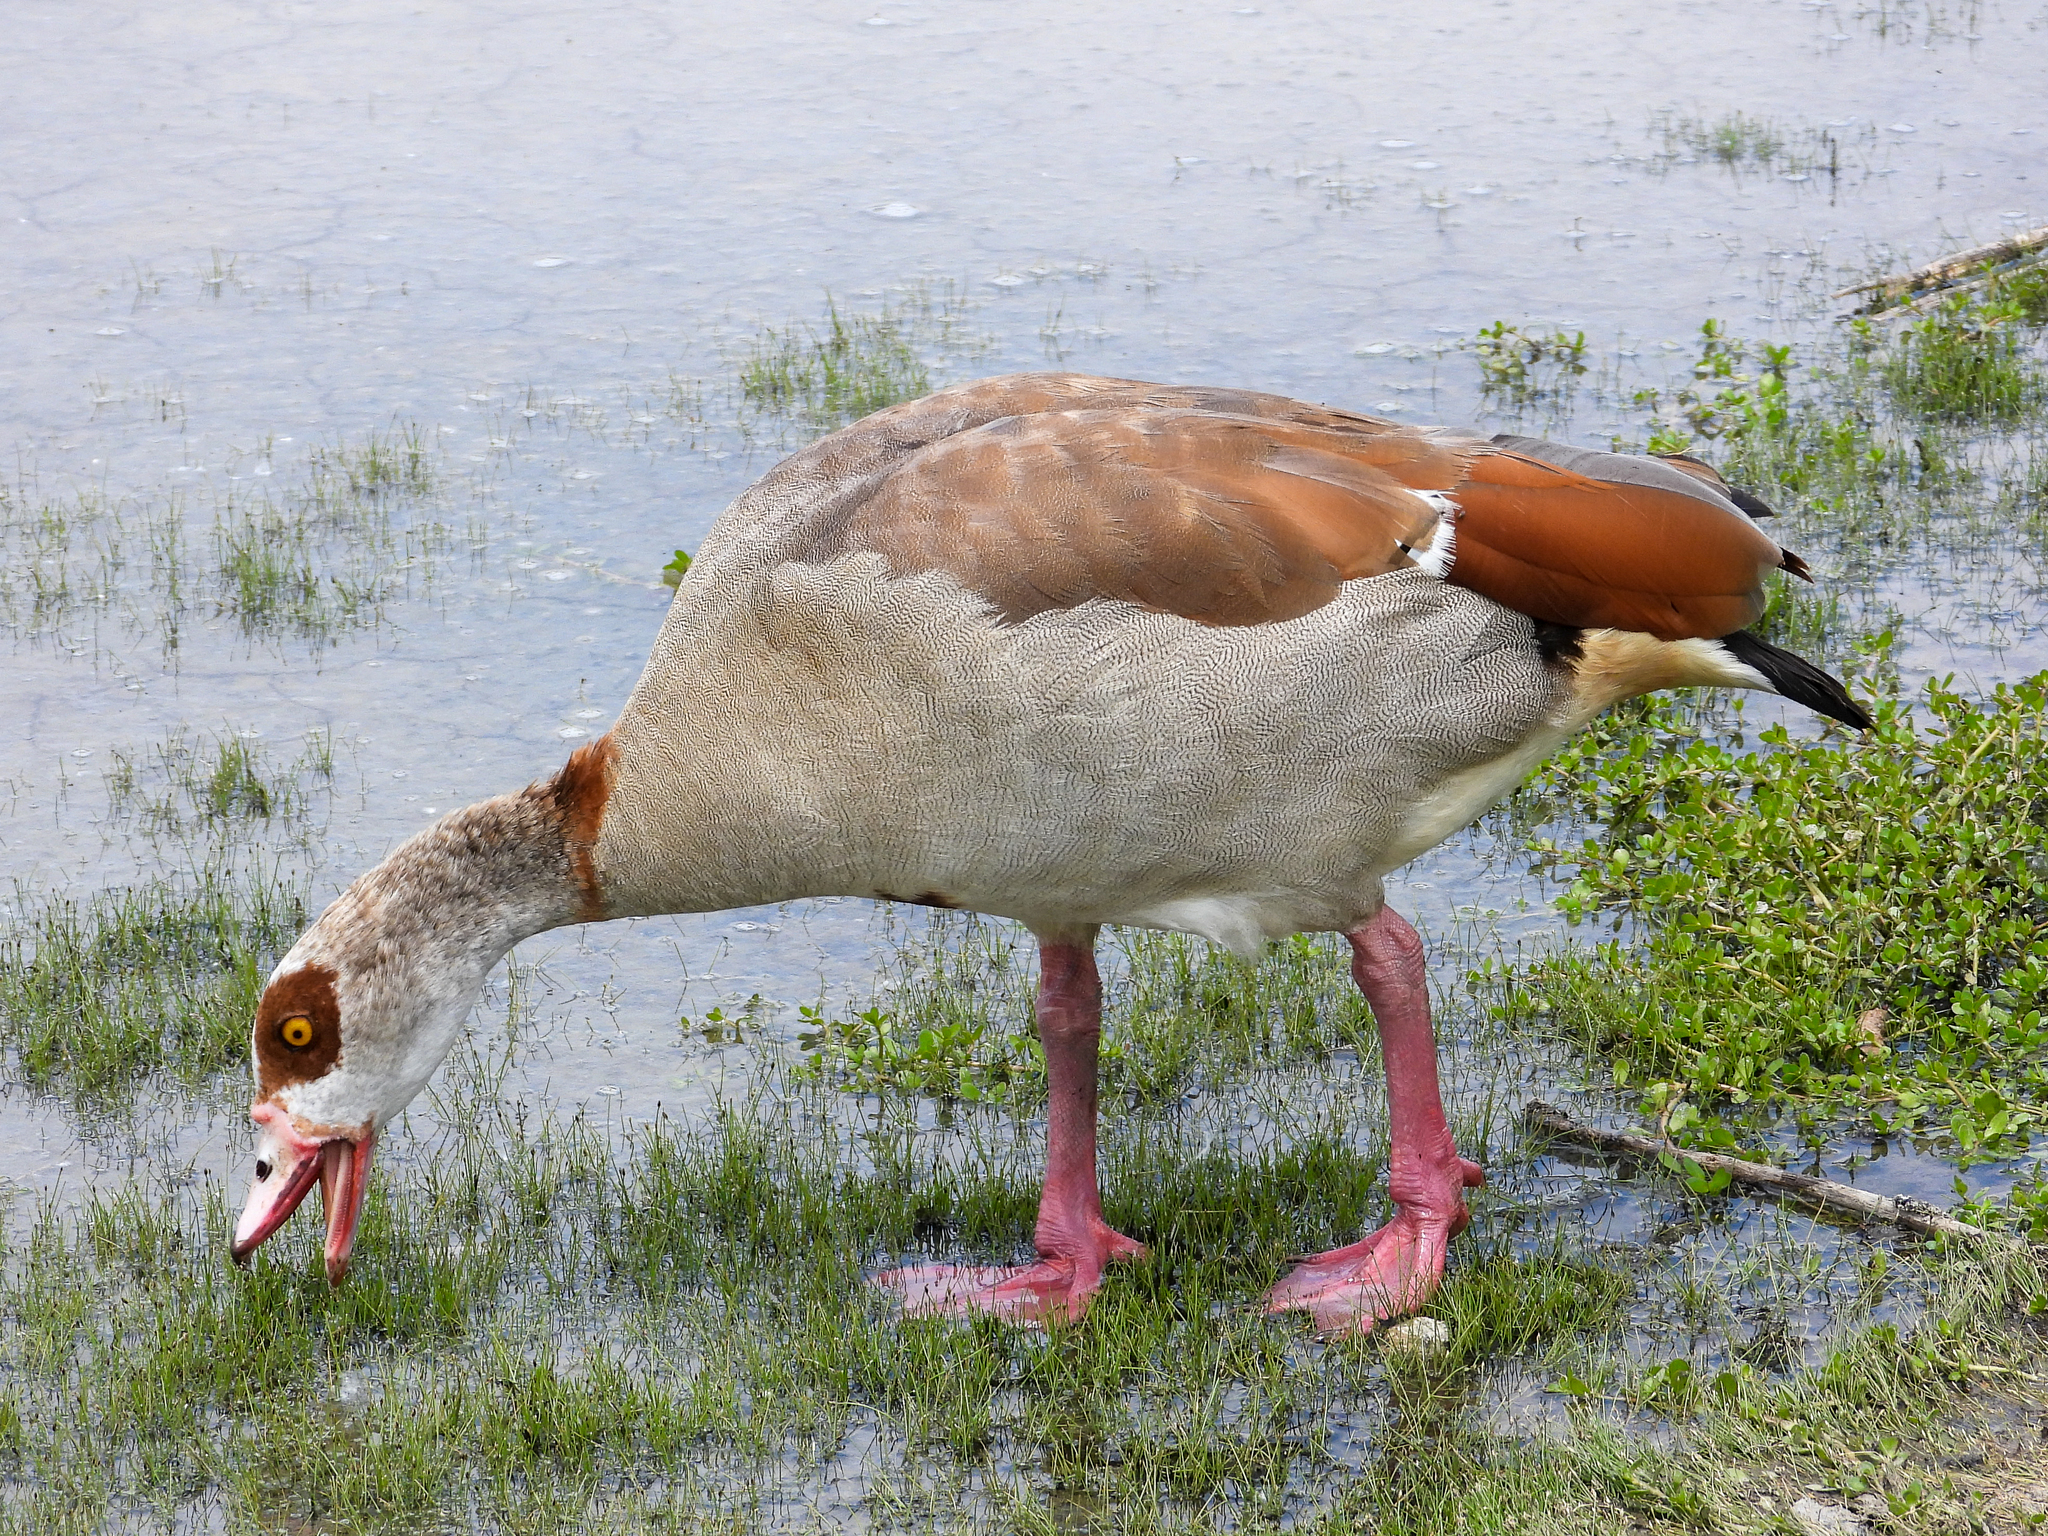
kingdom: Animalia
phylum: Chordata
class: Aves
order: Anseriformes
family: Anatidae
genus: Alopochen
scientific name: Alopochen aegyptiaca
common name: Egyptian goose
